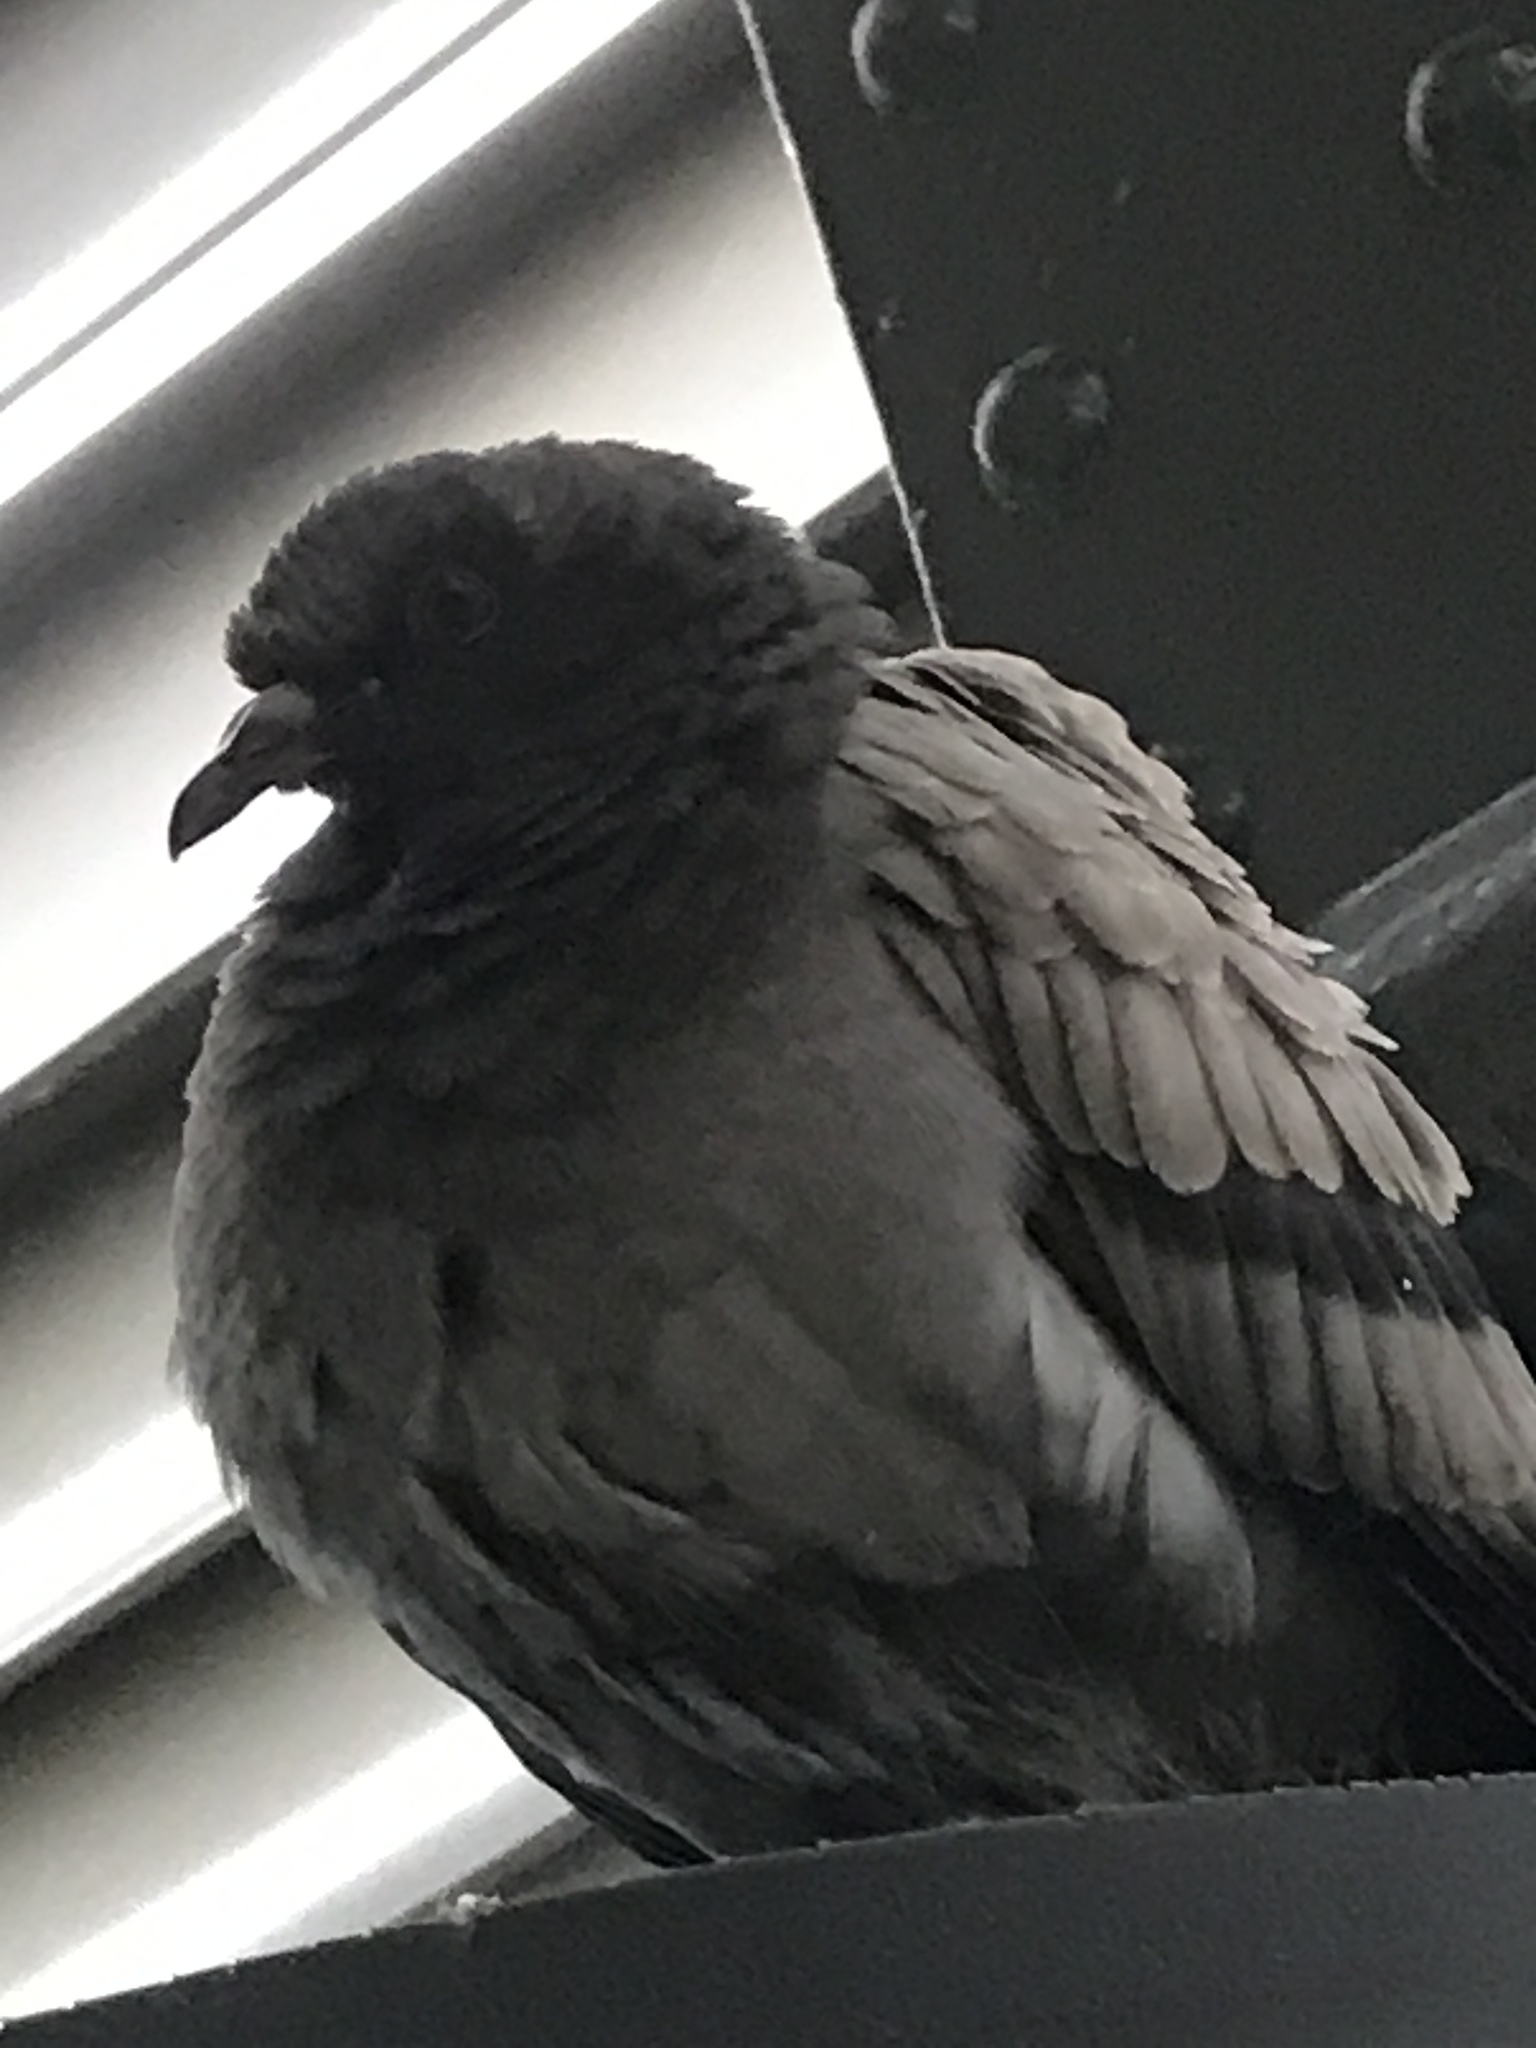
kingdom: Animalia
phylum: Chordata
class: Aves
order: Columbiformes
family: Columbidae
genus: Columba
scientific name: Columba livia
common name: Rock pigeon
